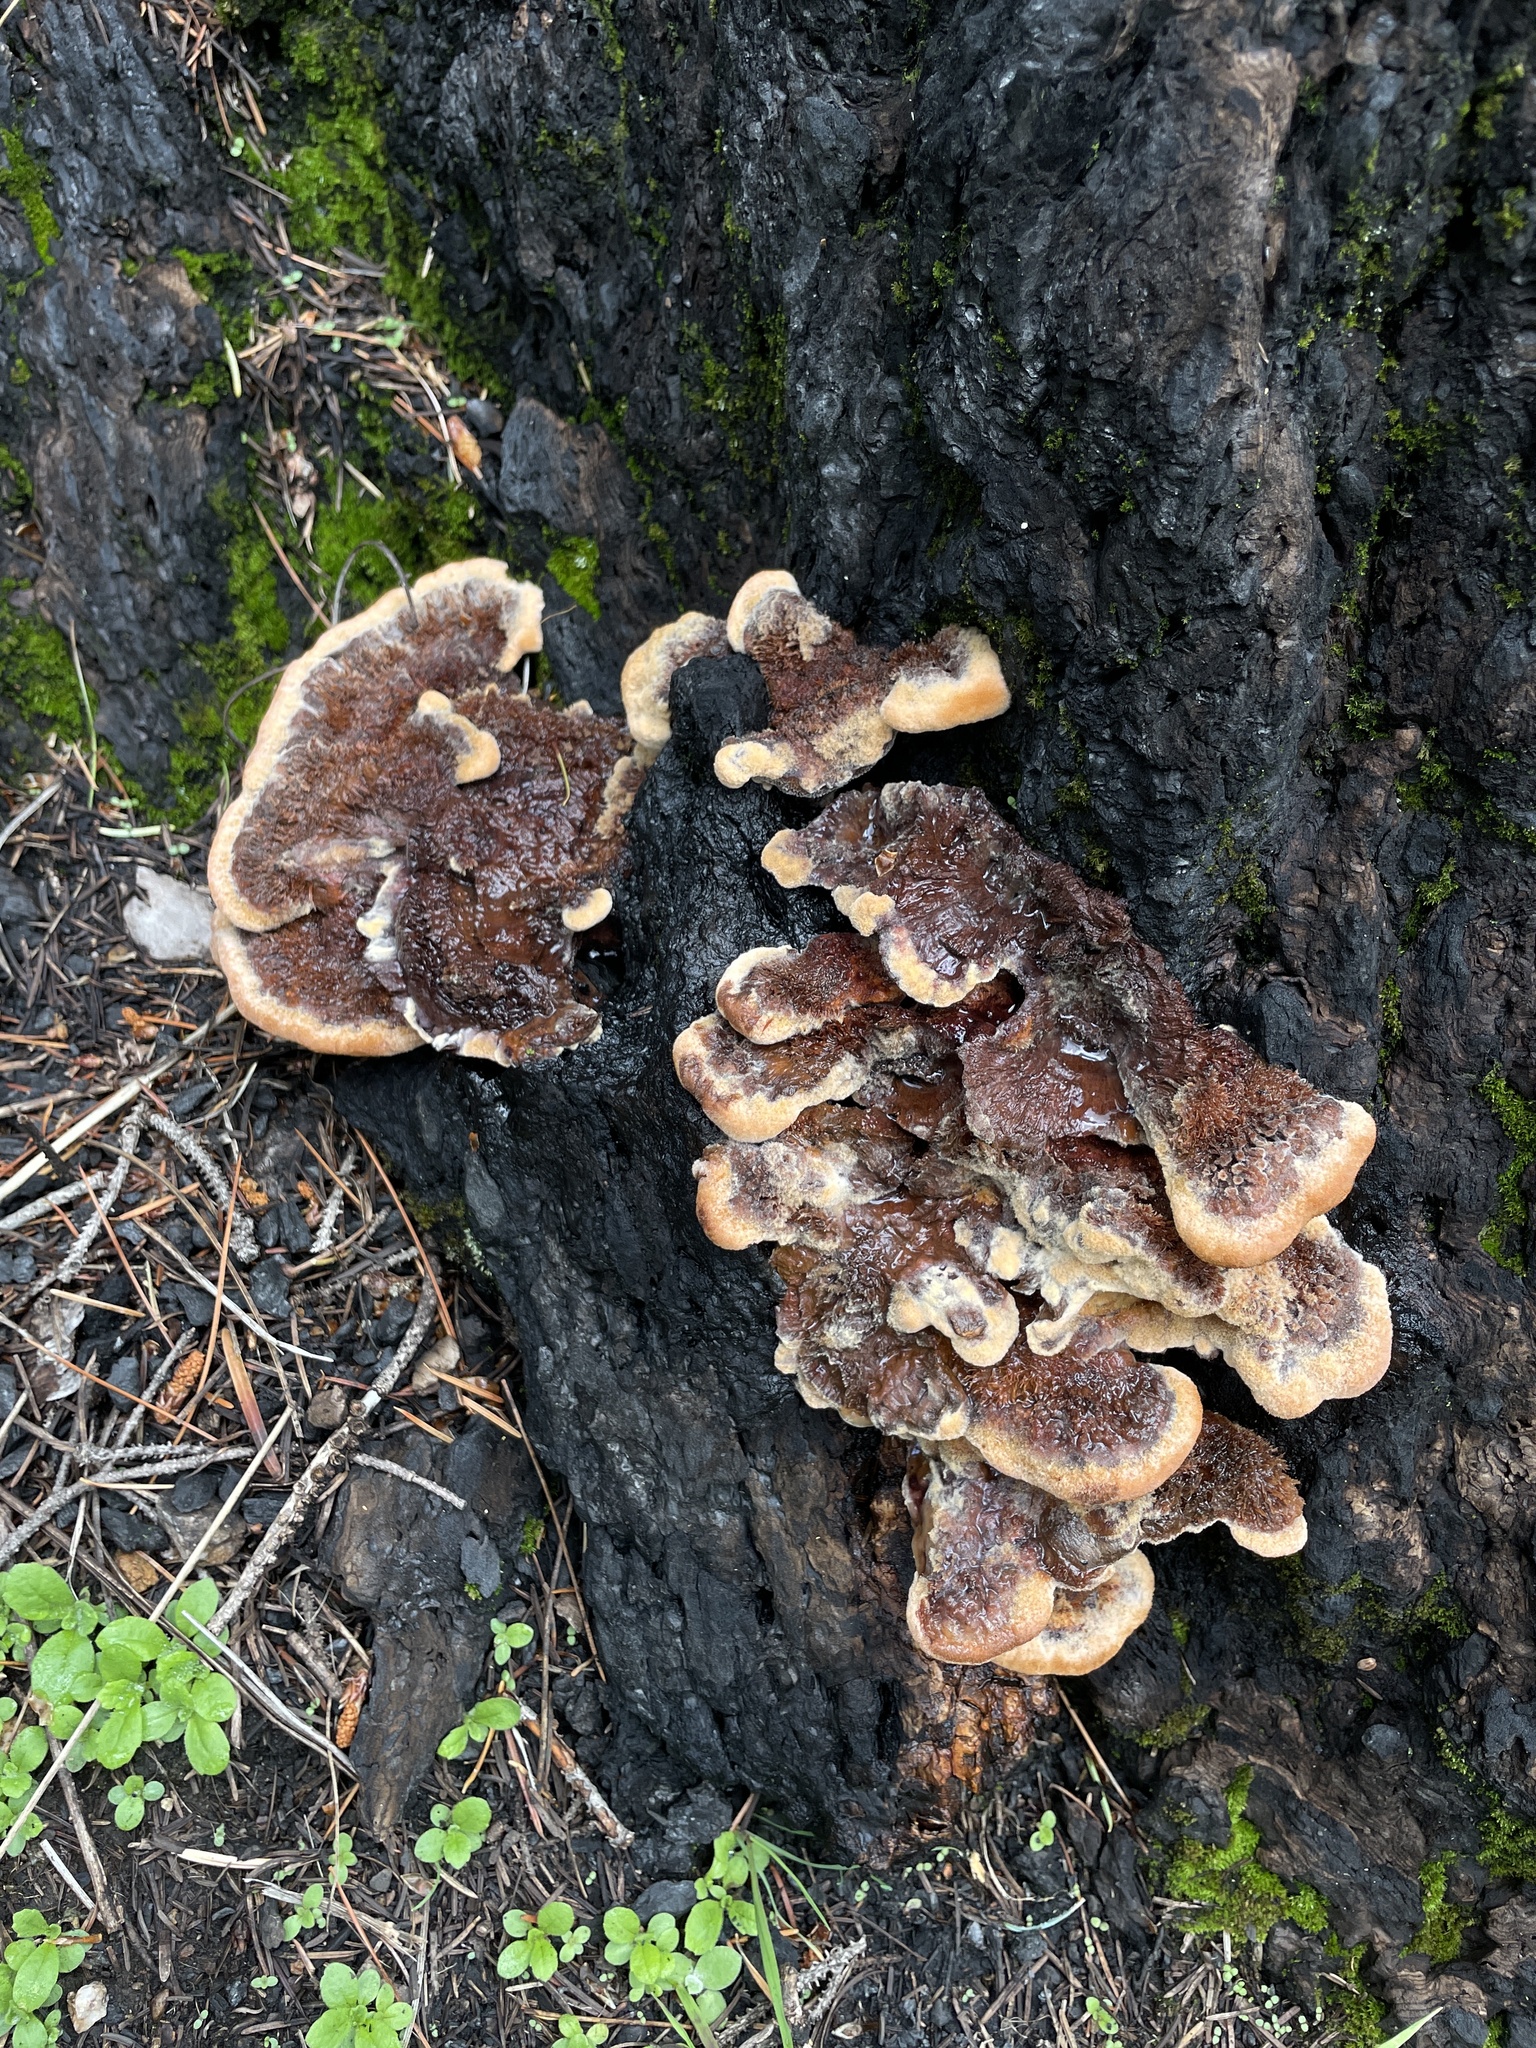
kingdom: Fungi
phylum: Basidiomycota
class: Agaricomycetes
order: Polyporales
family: Laetiporaceae
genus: Phaeolus
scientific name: Phaeolus schweinitzii
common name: Dyer's mazegill
